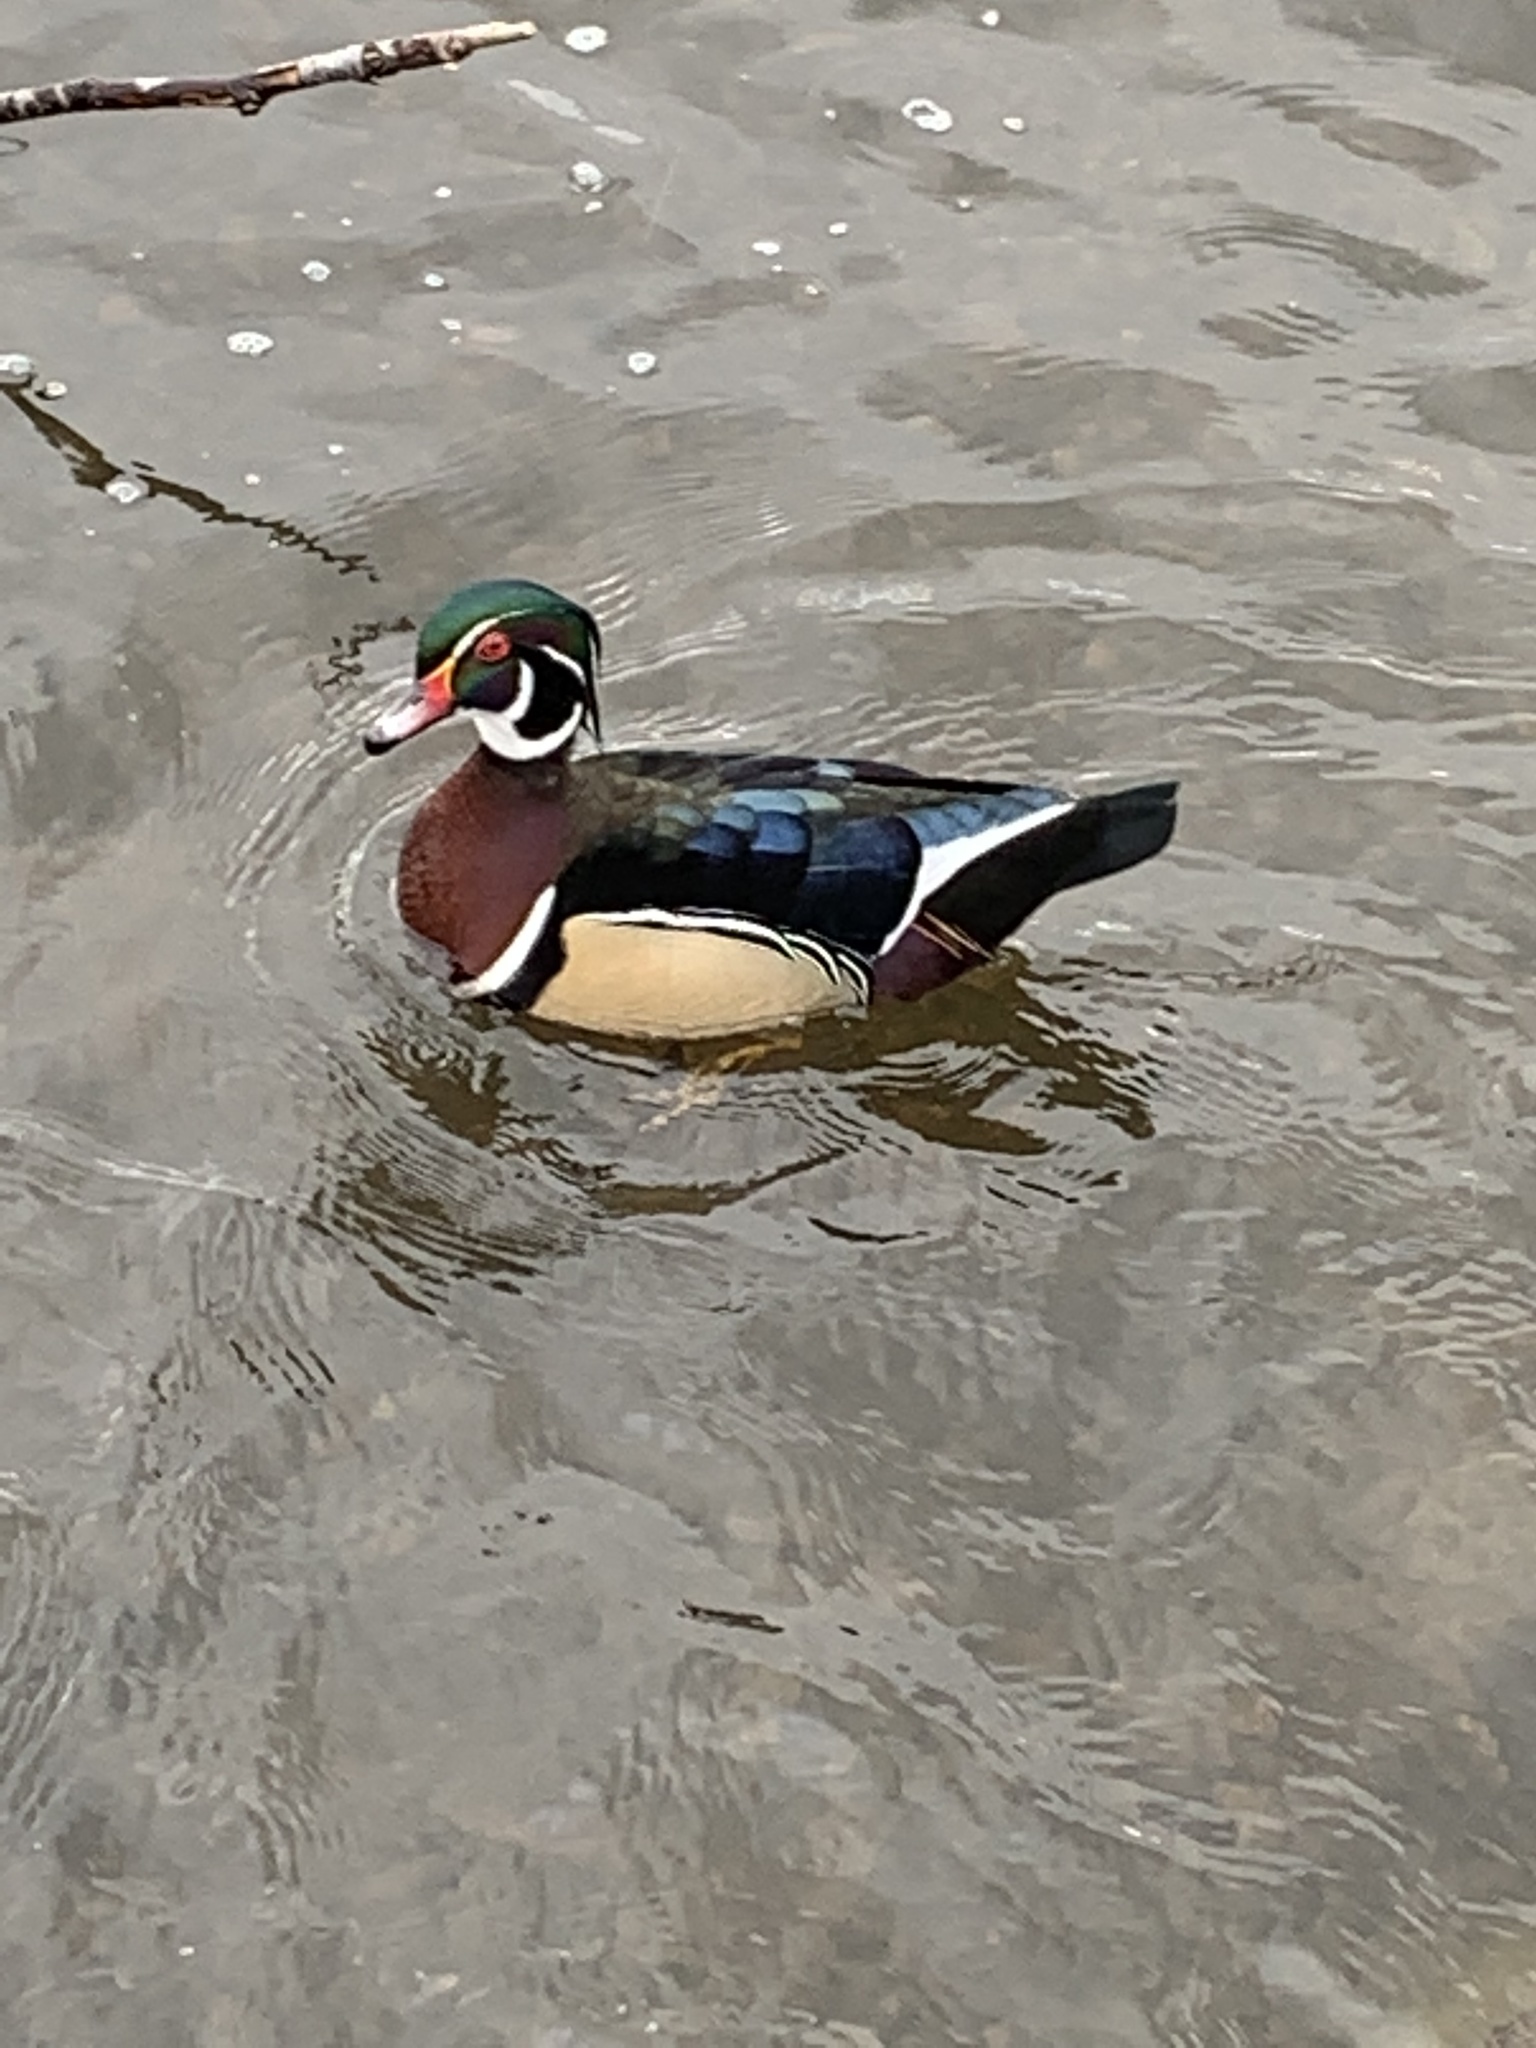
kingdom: Animalia
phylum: Chordata
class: Aves
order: Anseriformes
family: Anatidae
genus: Aix
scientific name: Aix sponsa
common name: Wood duck
